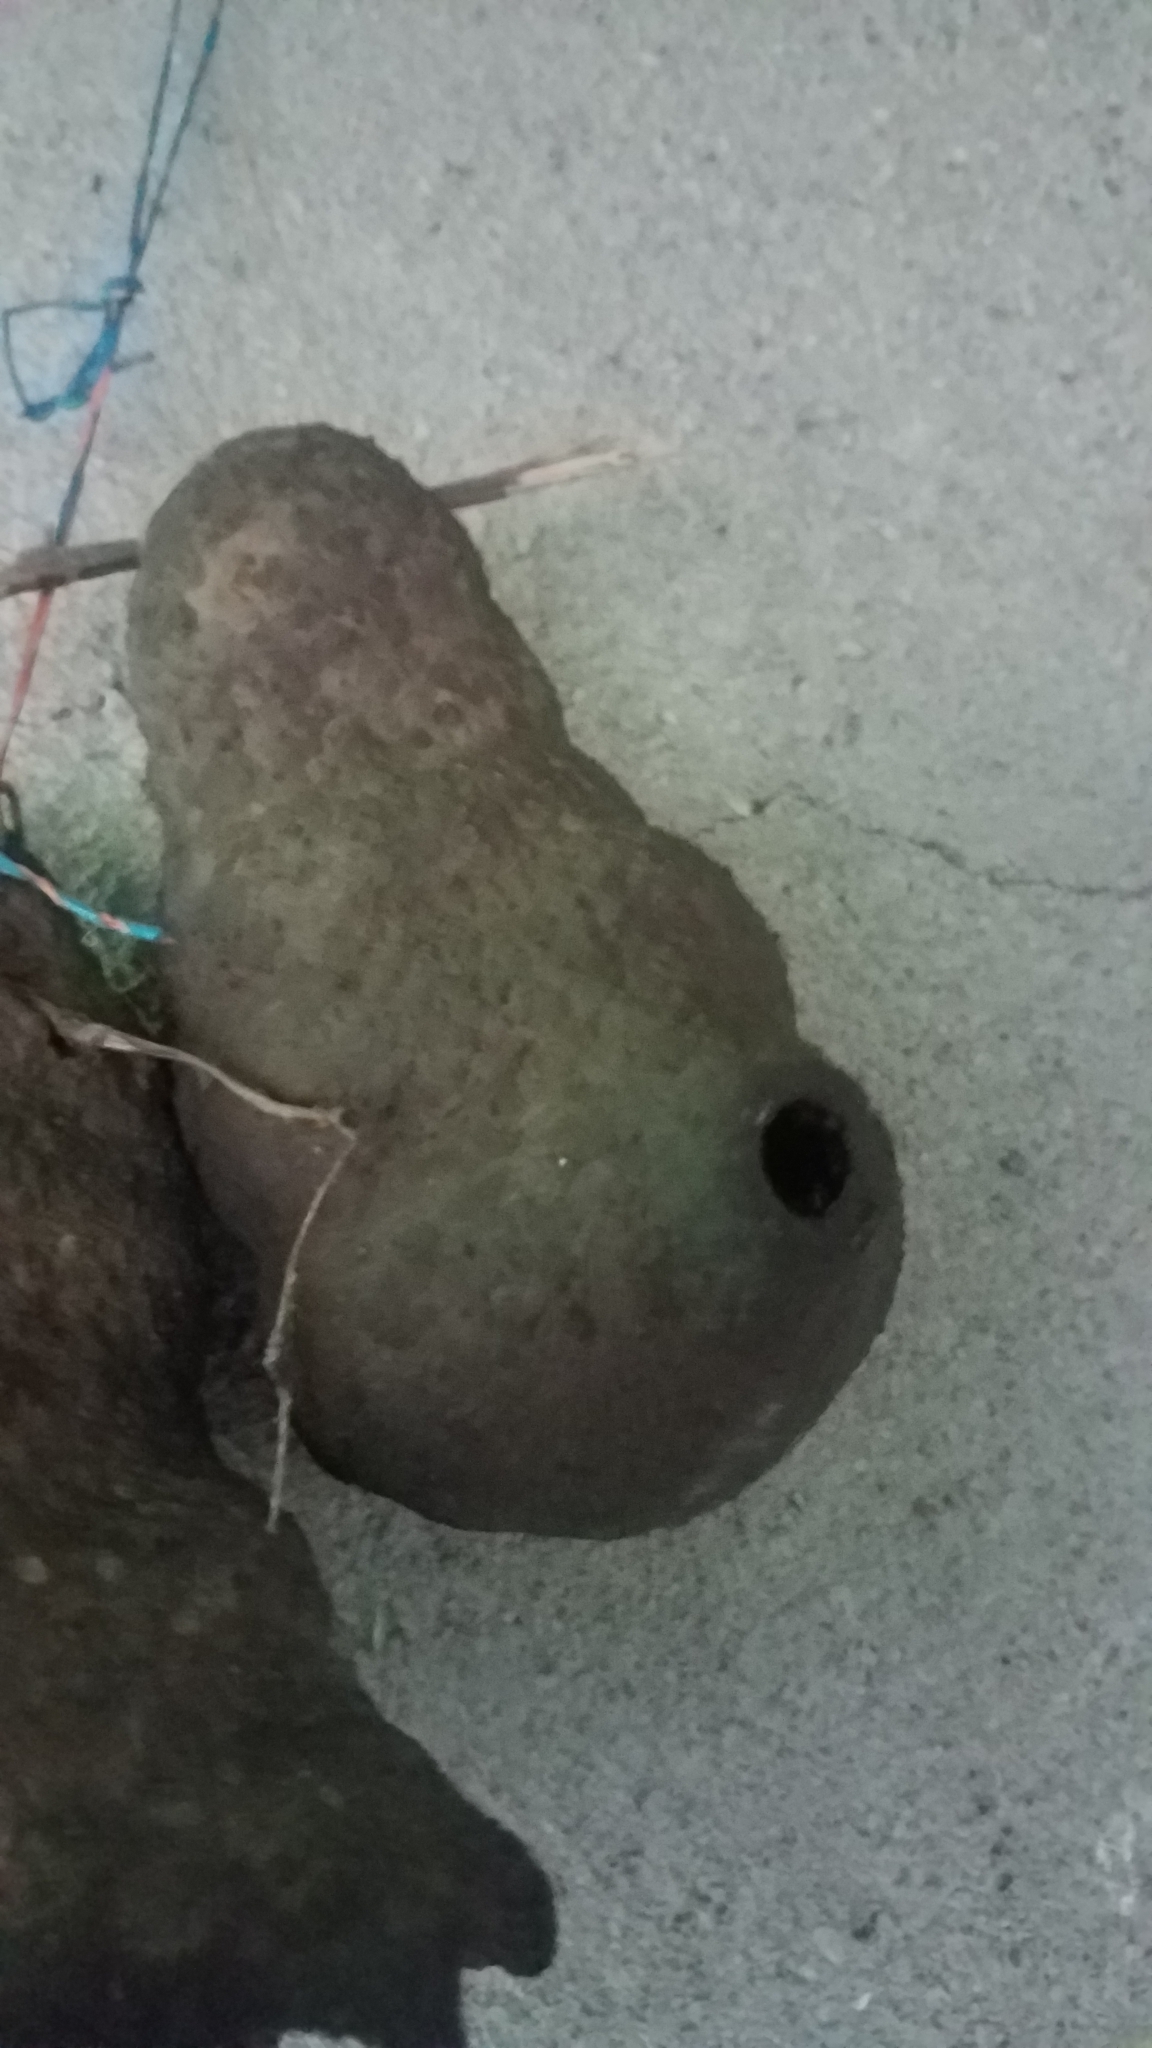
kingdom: Animalia
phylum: Arthropoda
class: Insecta
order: Hymenoptera
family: Eumenidae
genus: Polybia
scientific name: Polybia emaciata
